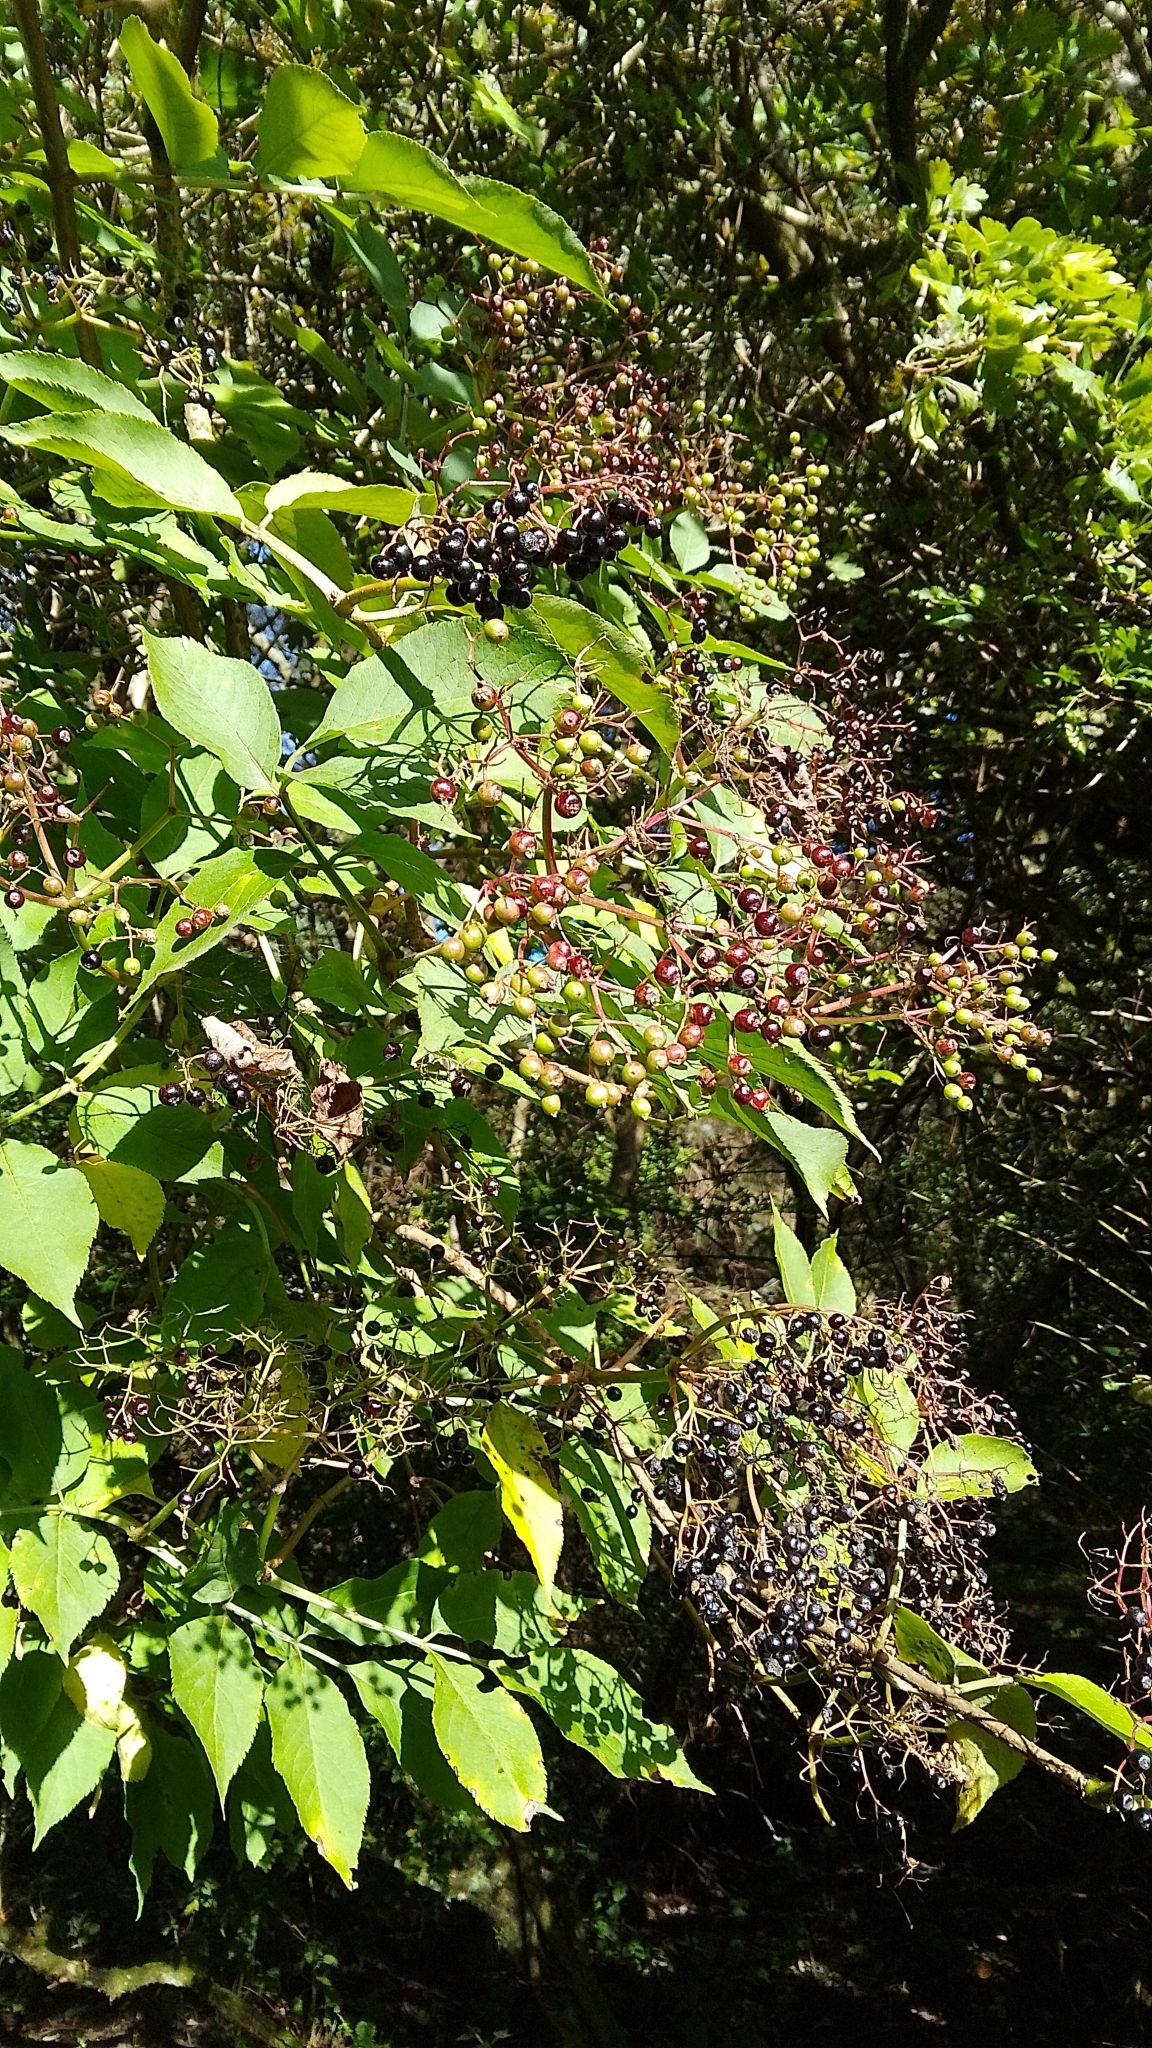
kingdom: Plantae
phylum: Tracheophyta
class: Magnoliopsida
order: Dipsacales
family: Viburnaceae
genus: Sambucus
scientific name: Sambucus nigra
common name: Elder
